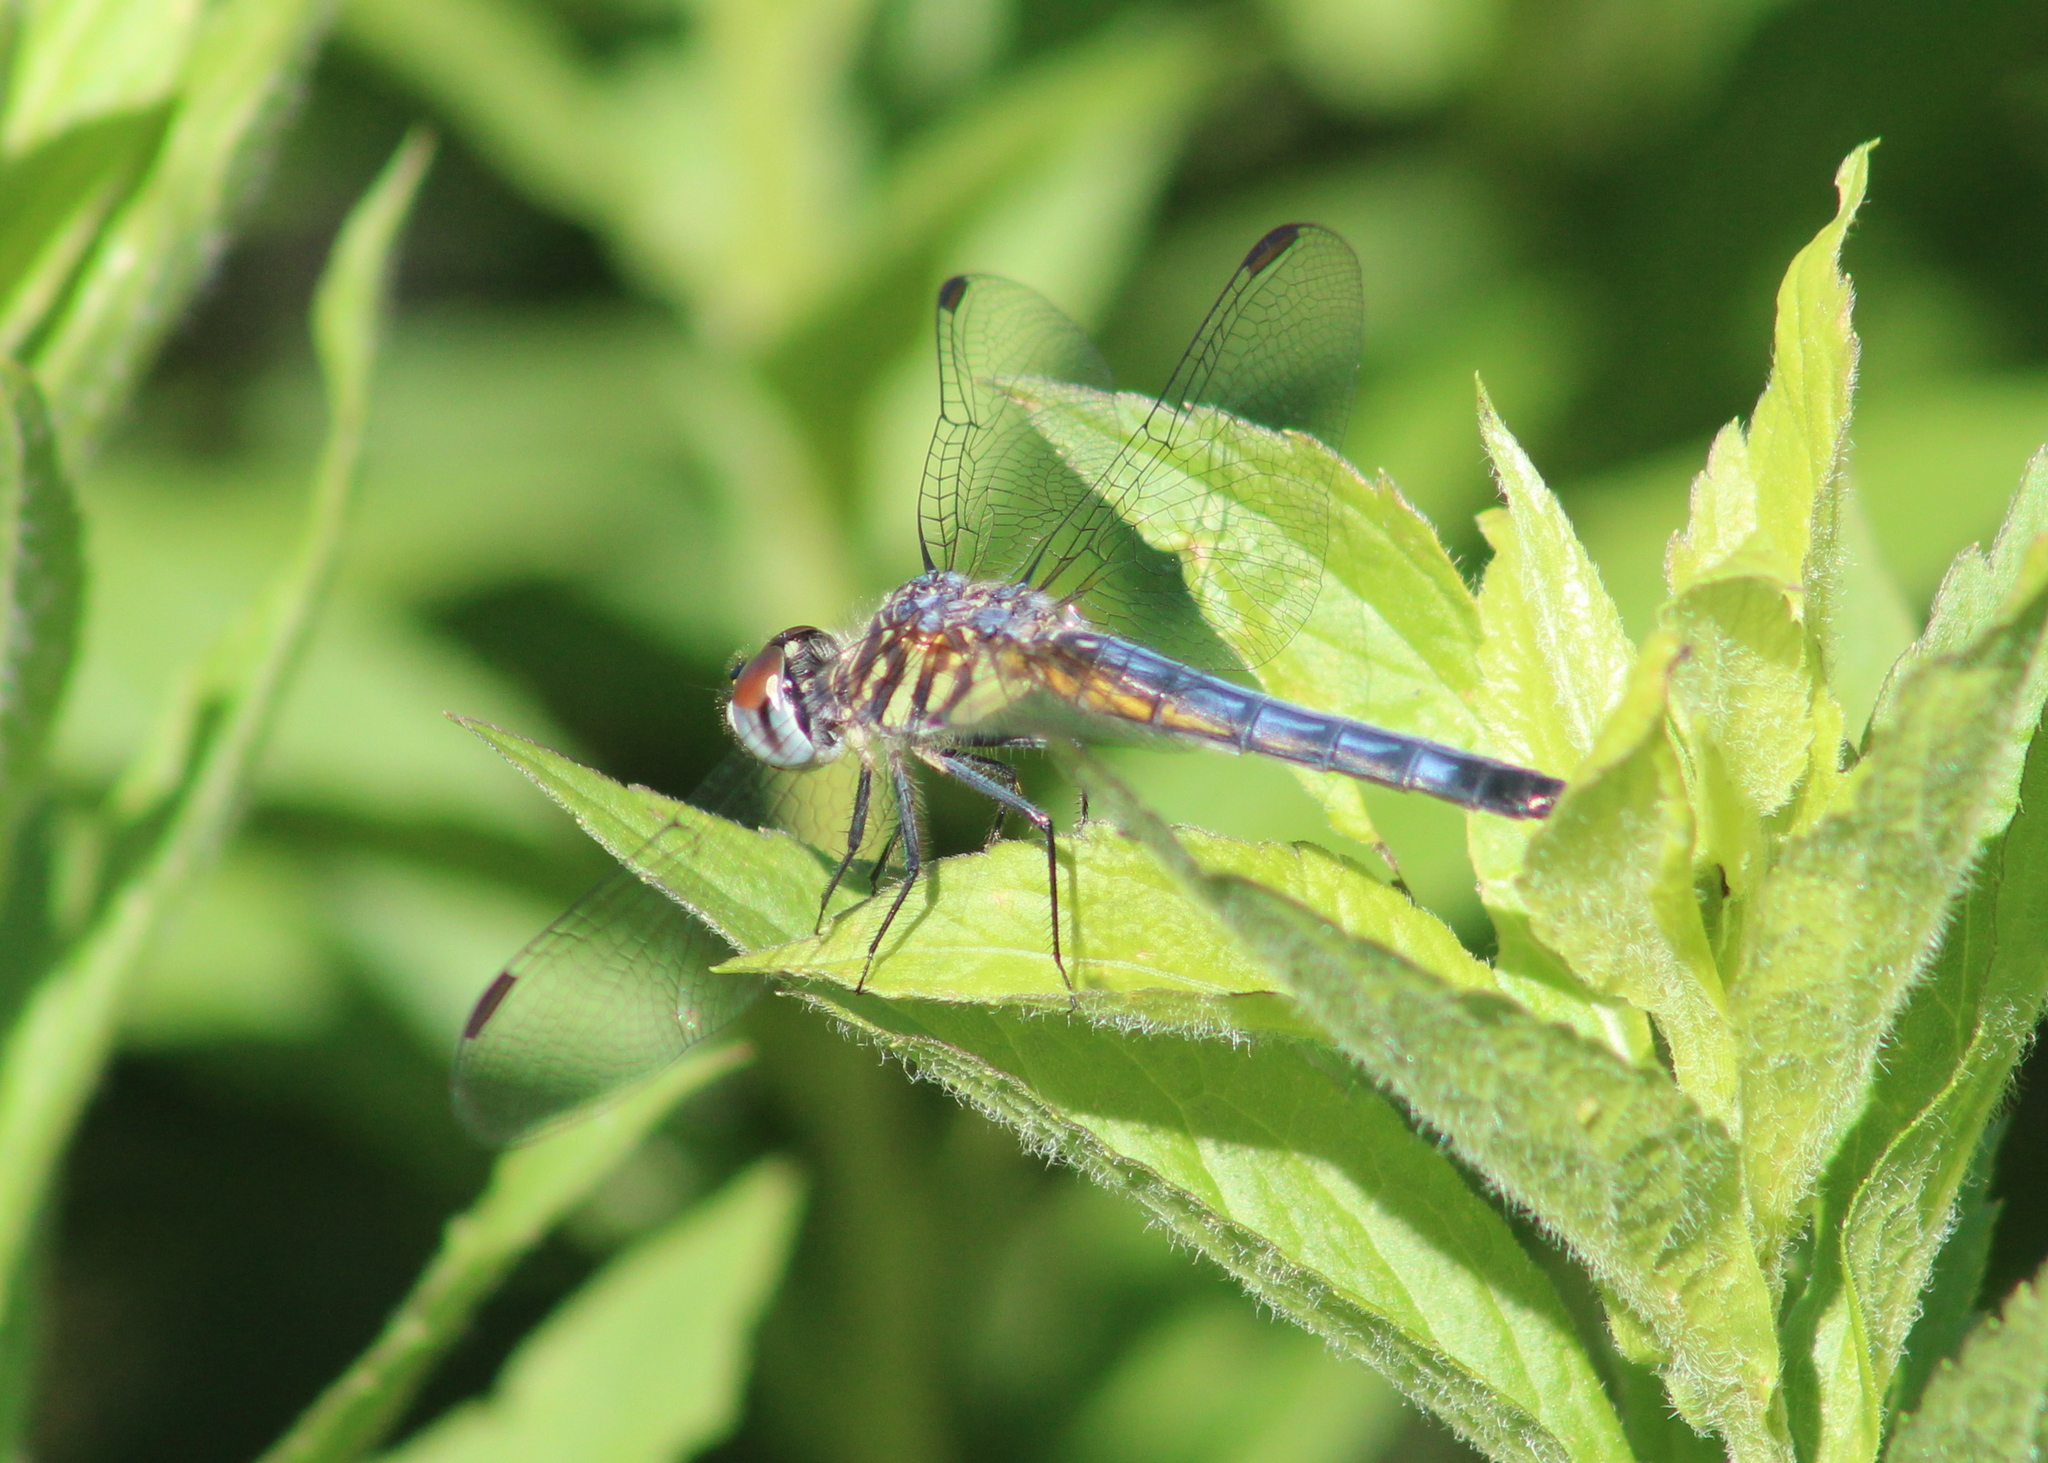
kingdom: Animalia
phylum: Arthropoda
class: Insecta
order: Odonata
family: Libellulidae
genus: Pachydiplax
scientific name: Pachydiplax longipennis
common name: Blue dasher
